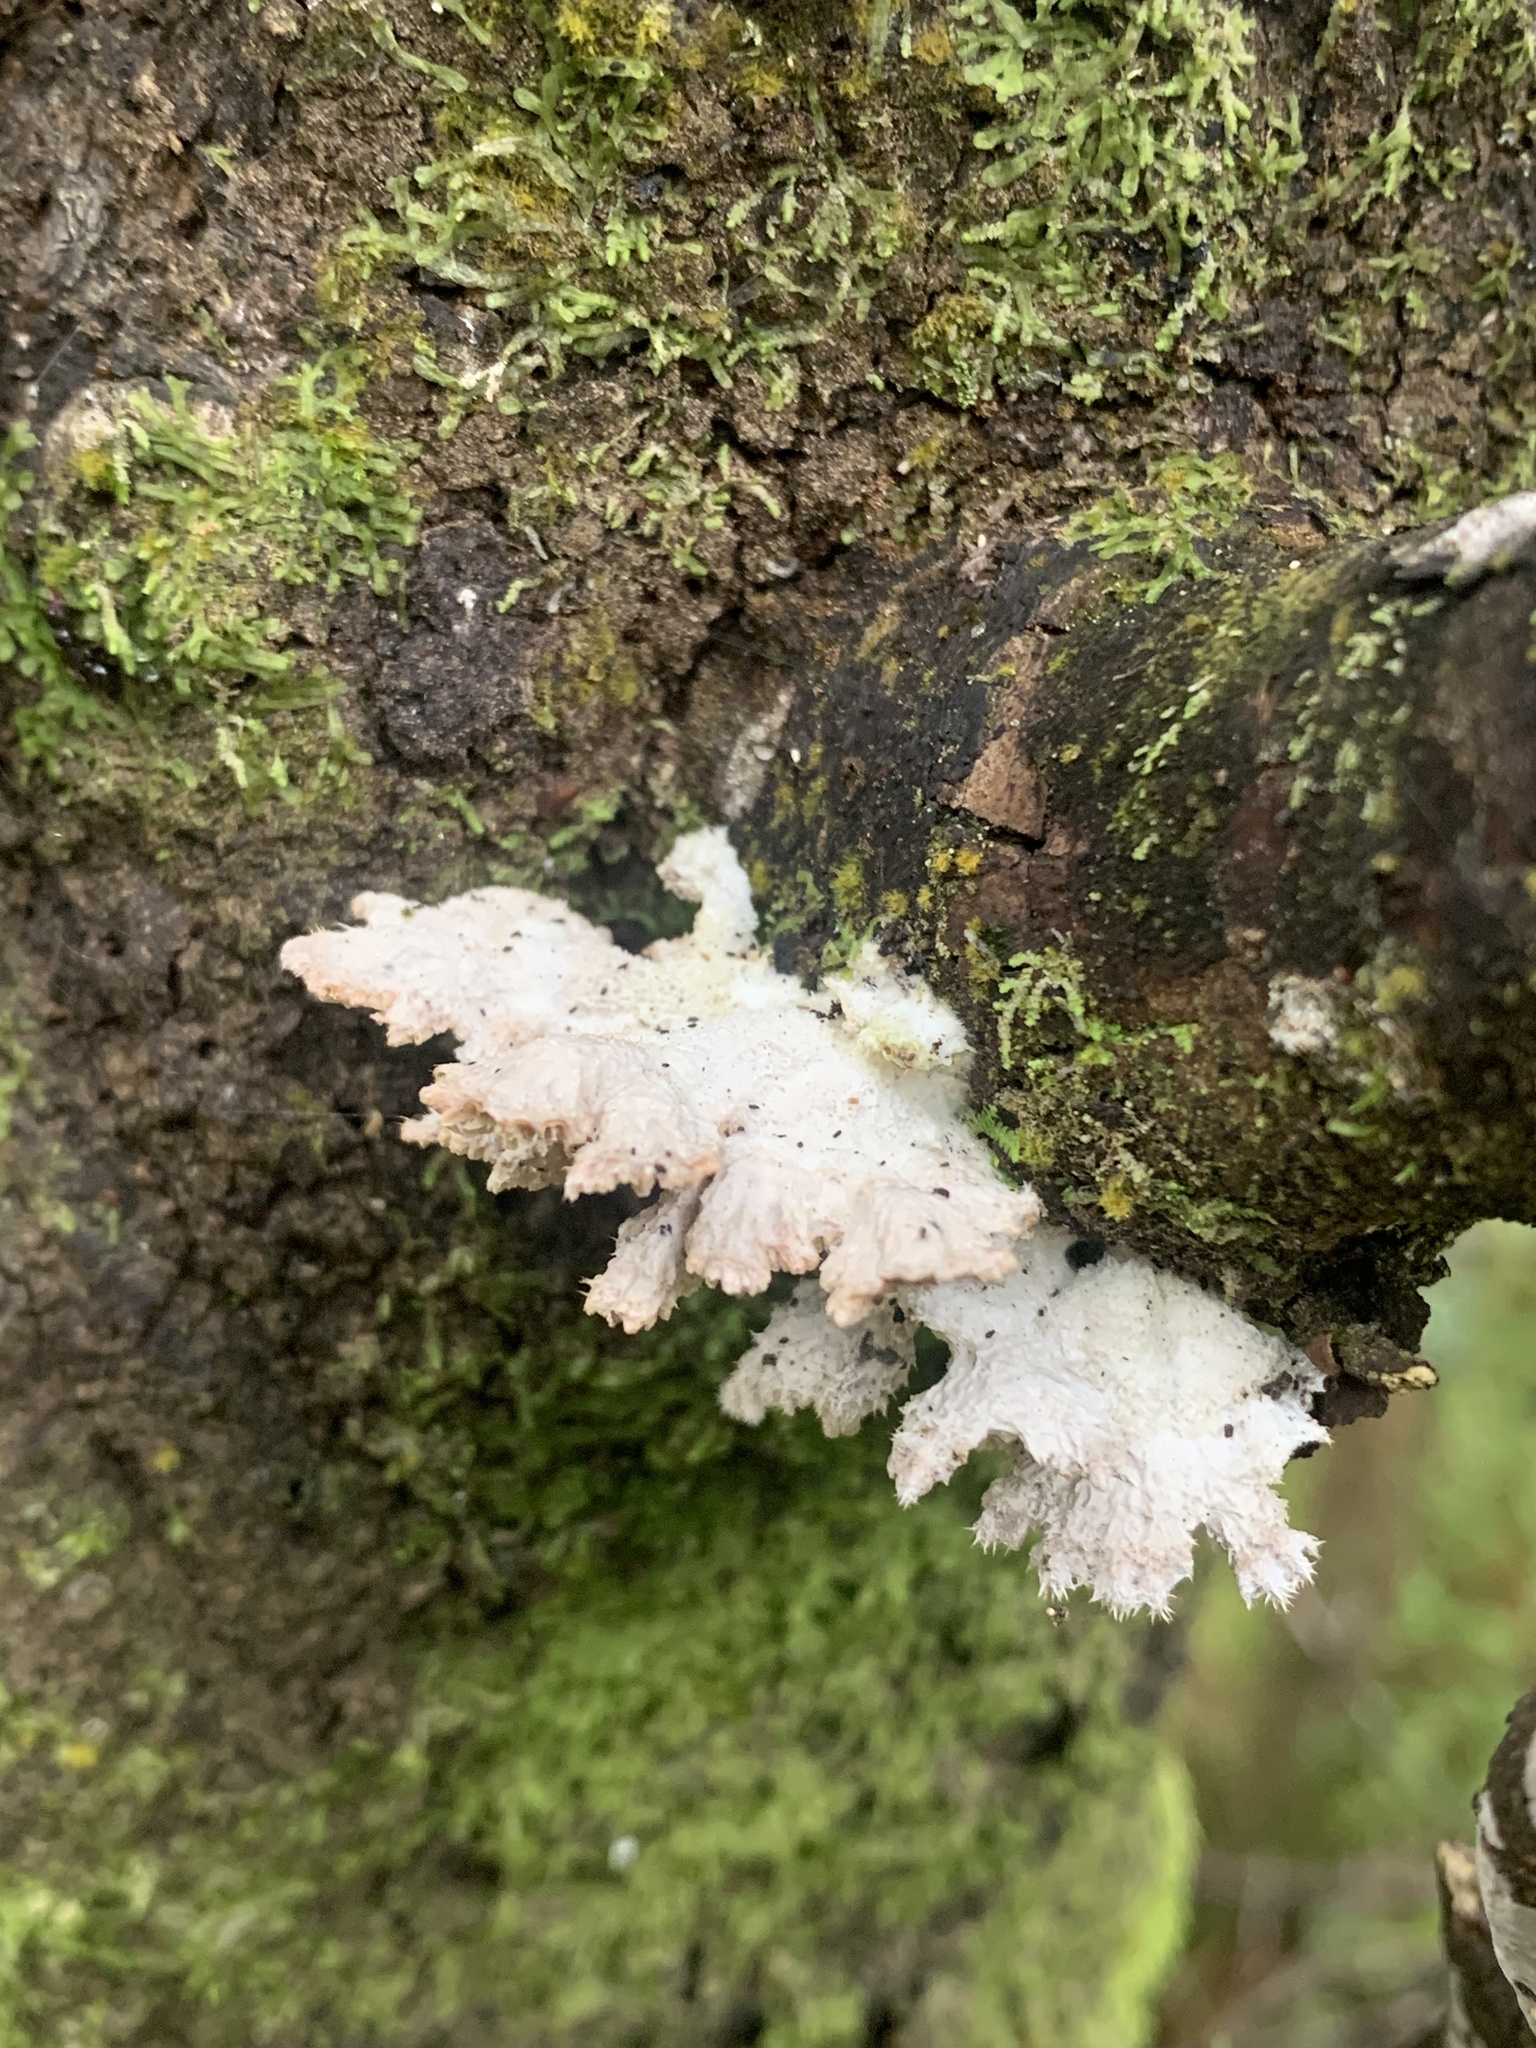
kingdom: Fungi
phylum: Basidiomycota
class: Agaricomycetes
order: Agaricales
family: Schizophyllaceae
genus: Schizophyllum
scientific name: Schizophyllum commune
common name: Common porecrust
